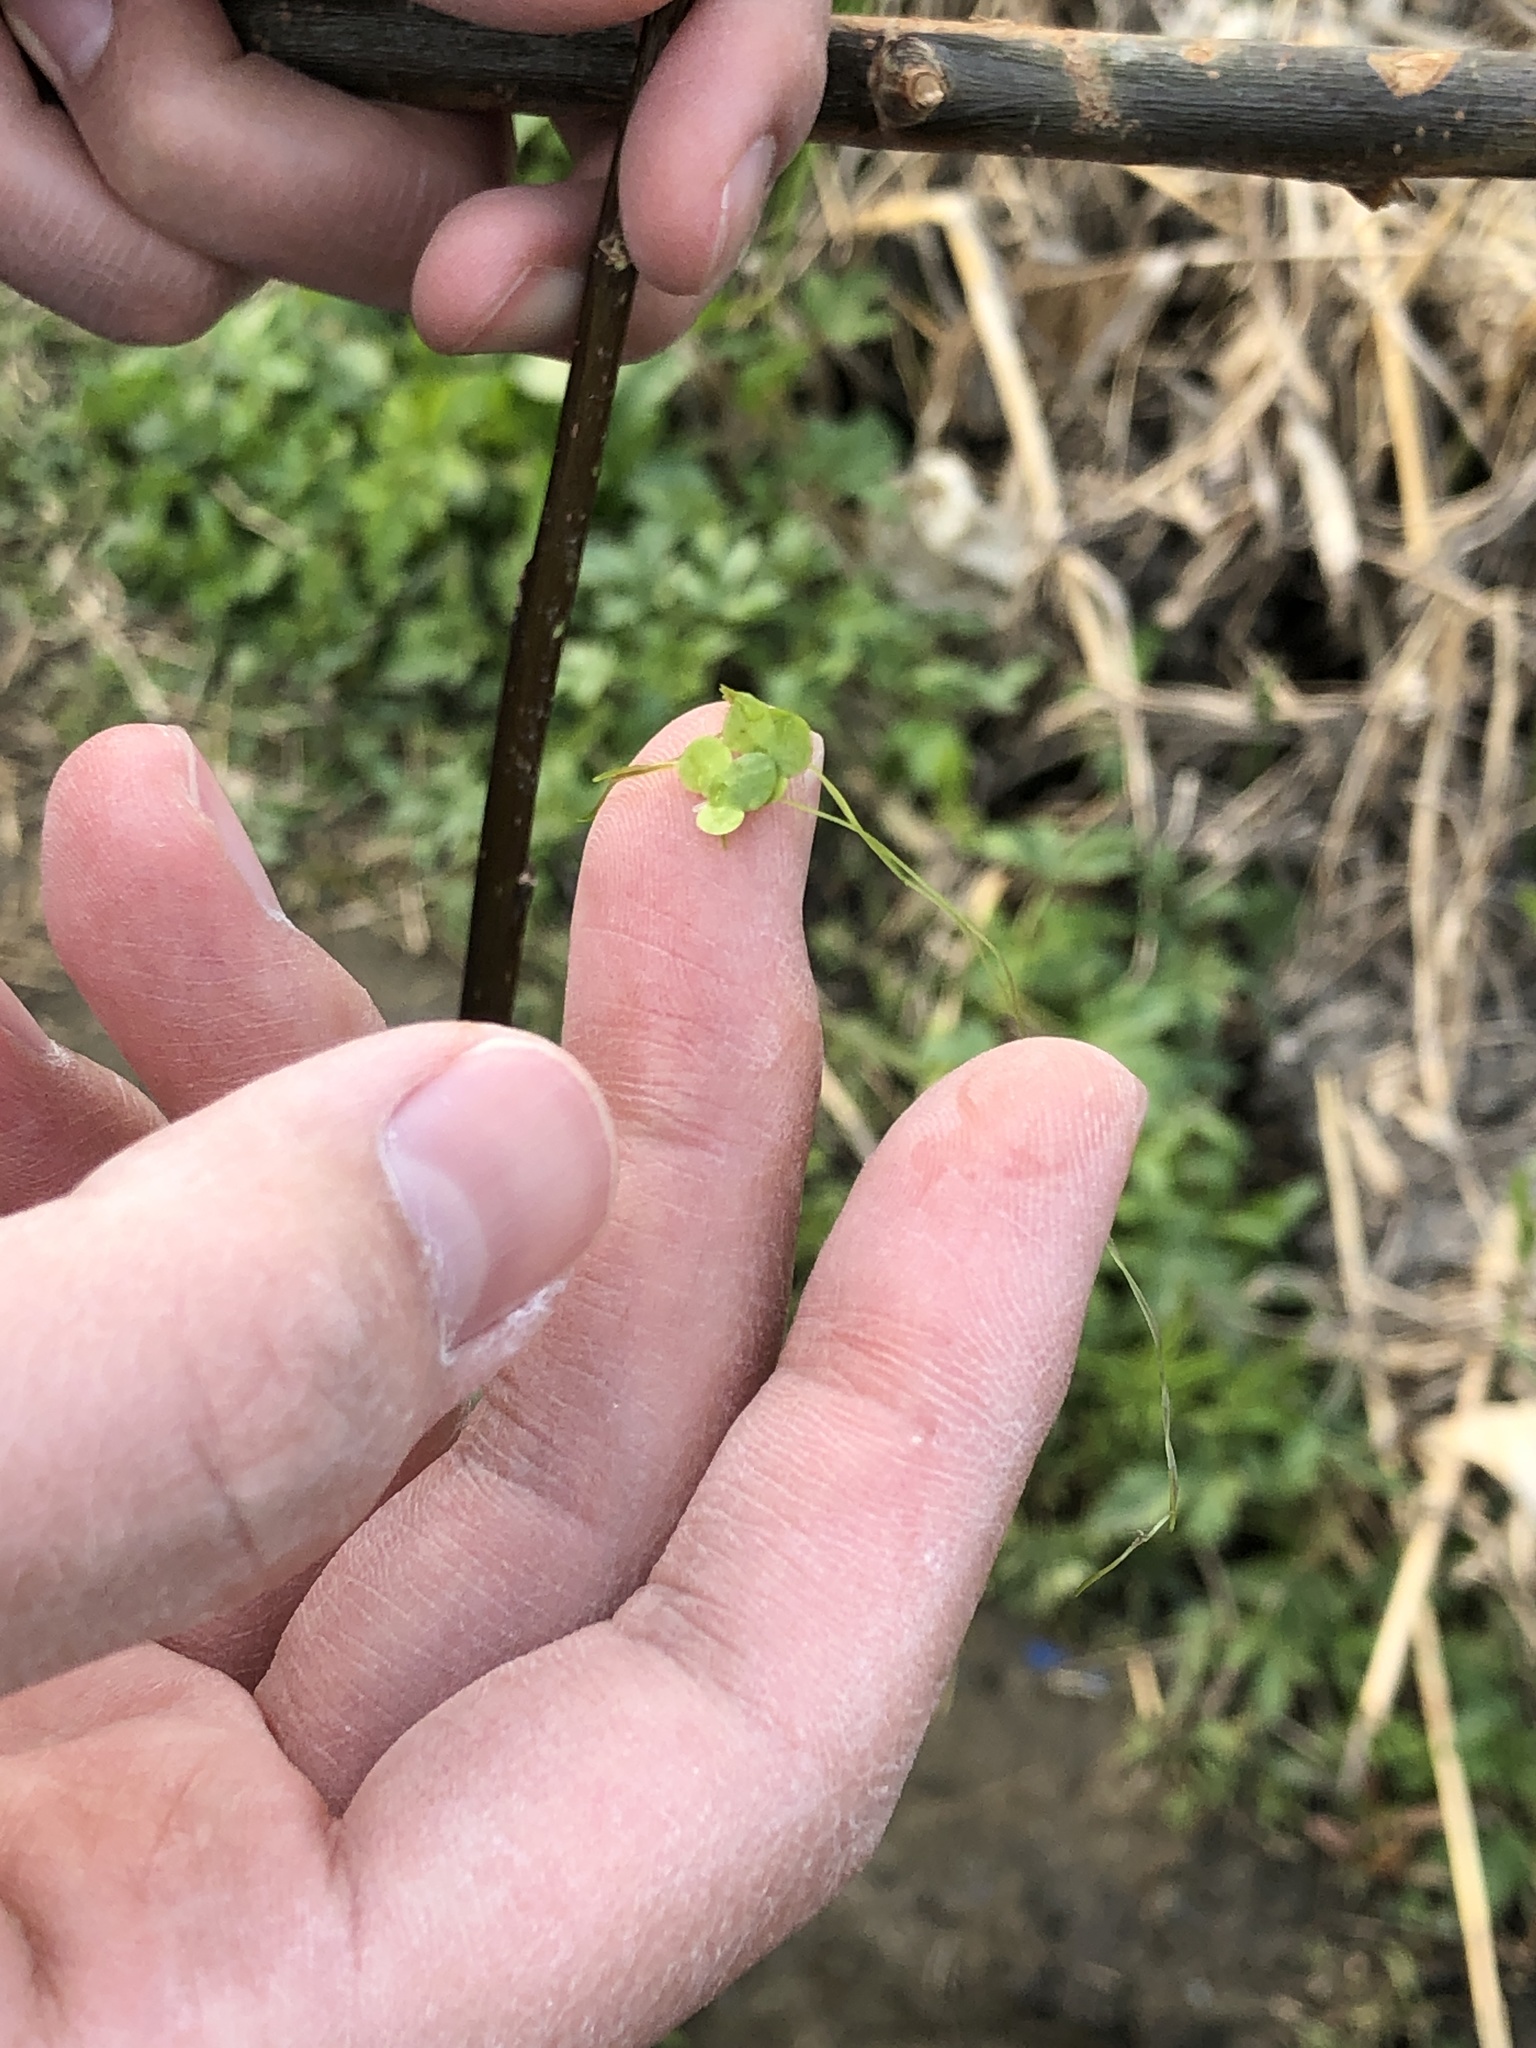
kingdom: Plantae
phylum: Tracheophyta
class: Liliopsida
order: Alismatales
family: Araceae
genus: Lemna
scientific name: Lemna minor
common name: Common duckweed
